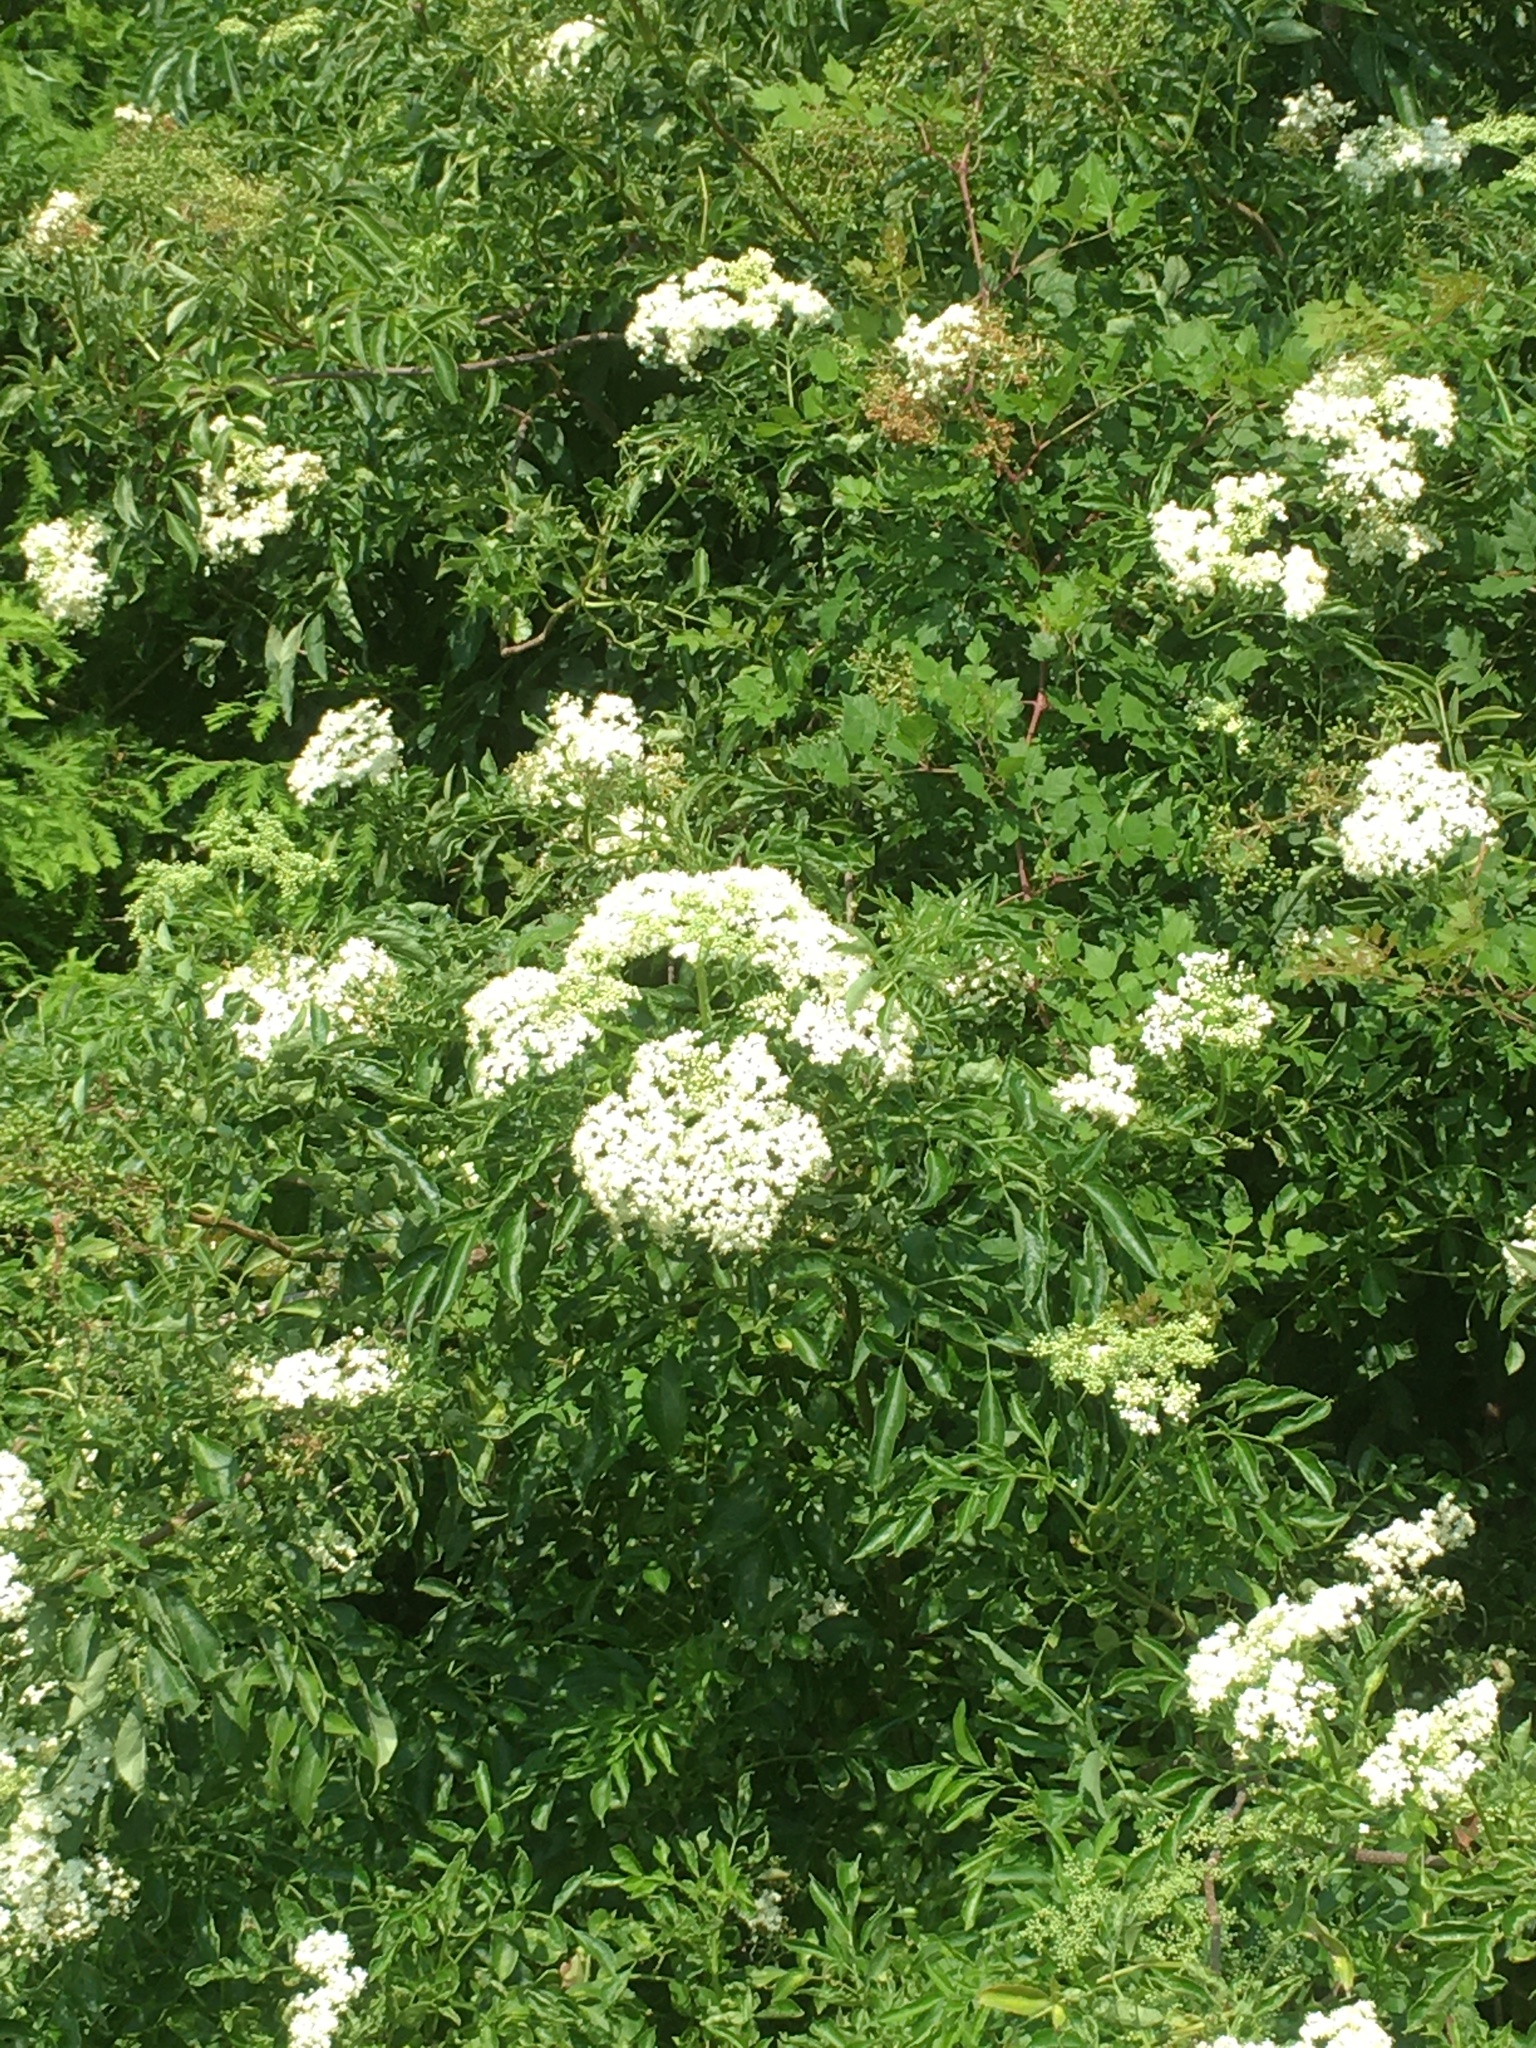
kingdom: Plantae
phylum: Tracheophyta
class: Magnoliopsida
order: Dipsacales
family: Viburnaceae
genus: Sambucus
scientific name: Sambucus canadensis
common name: American elder
